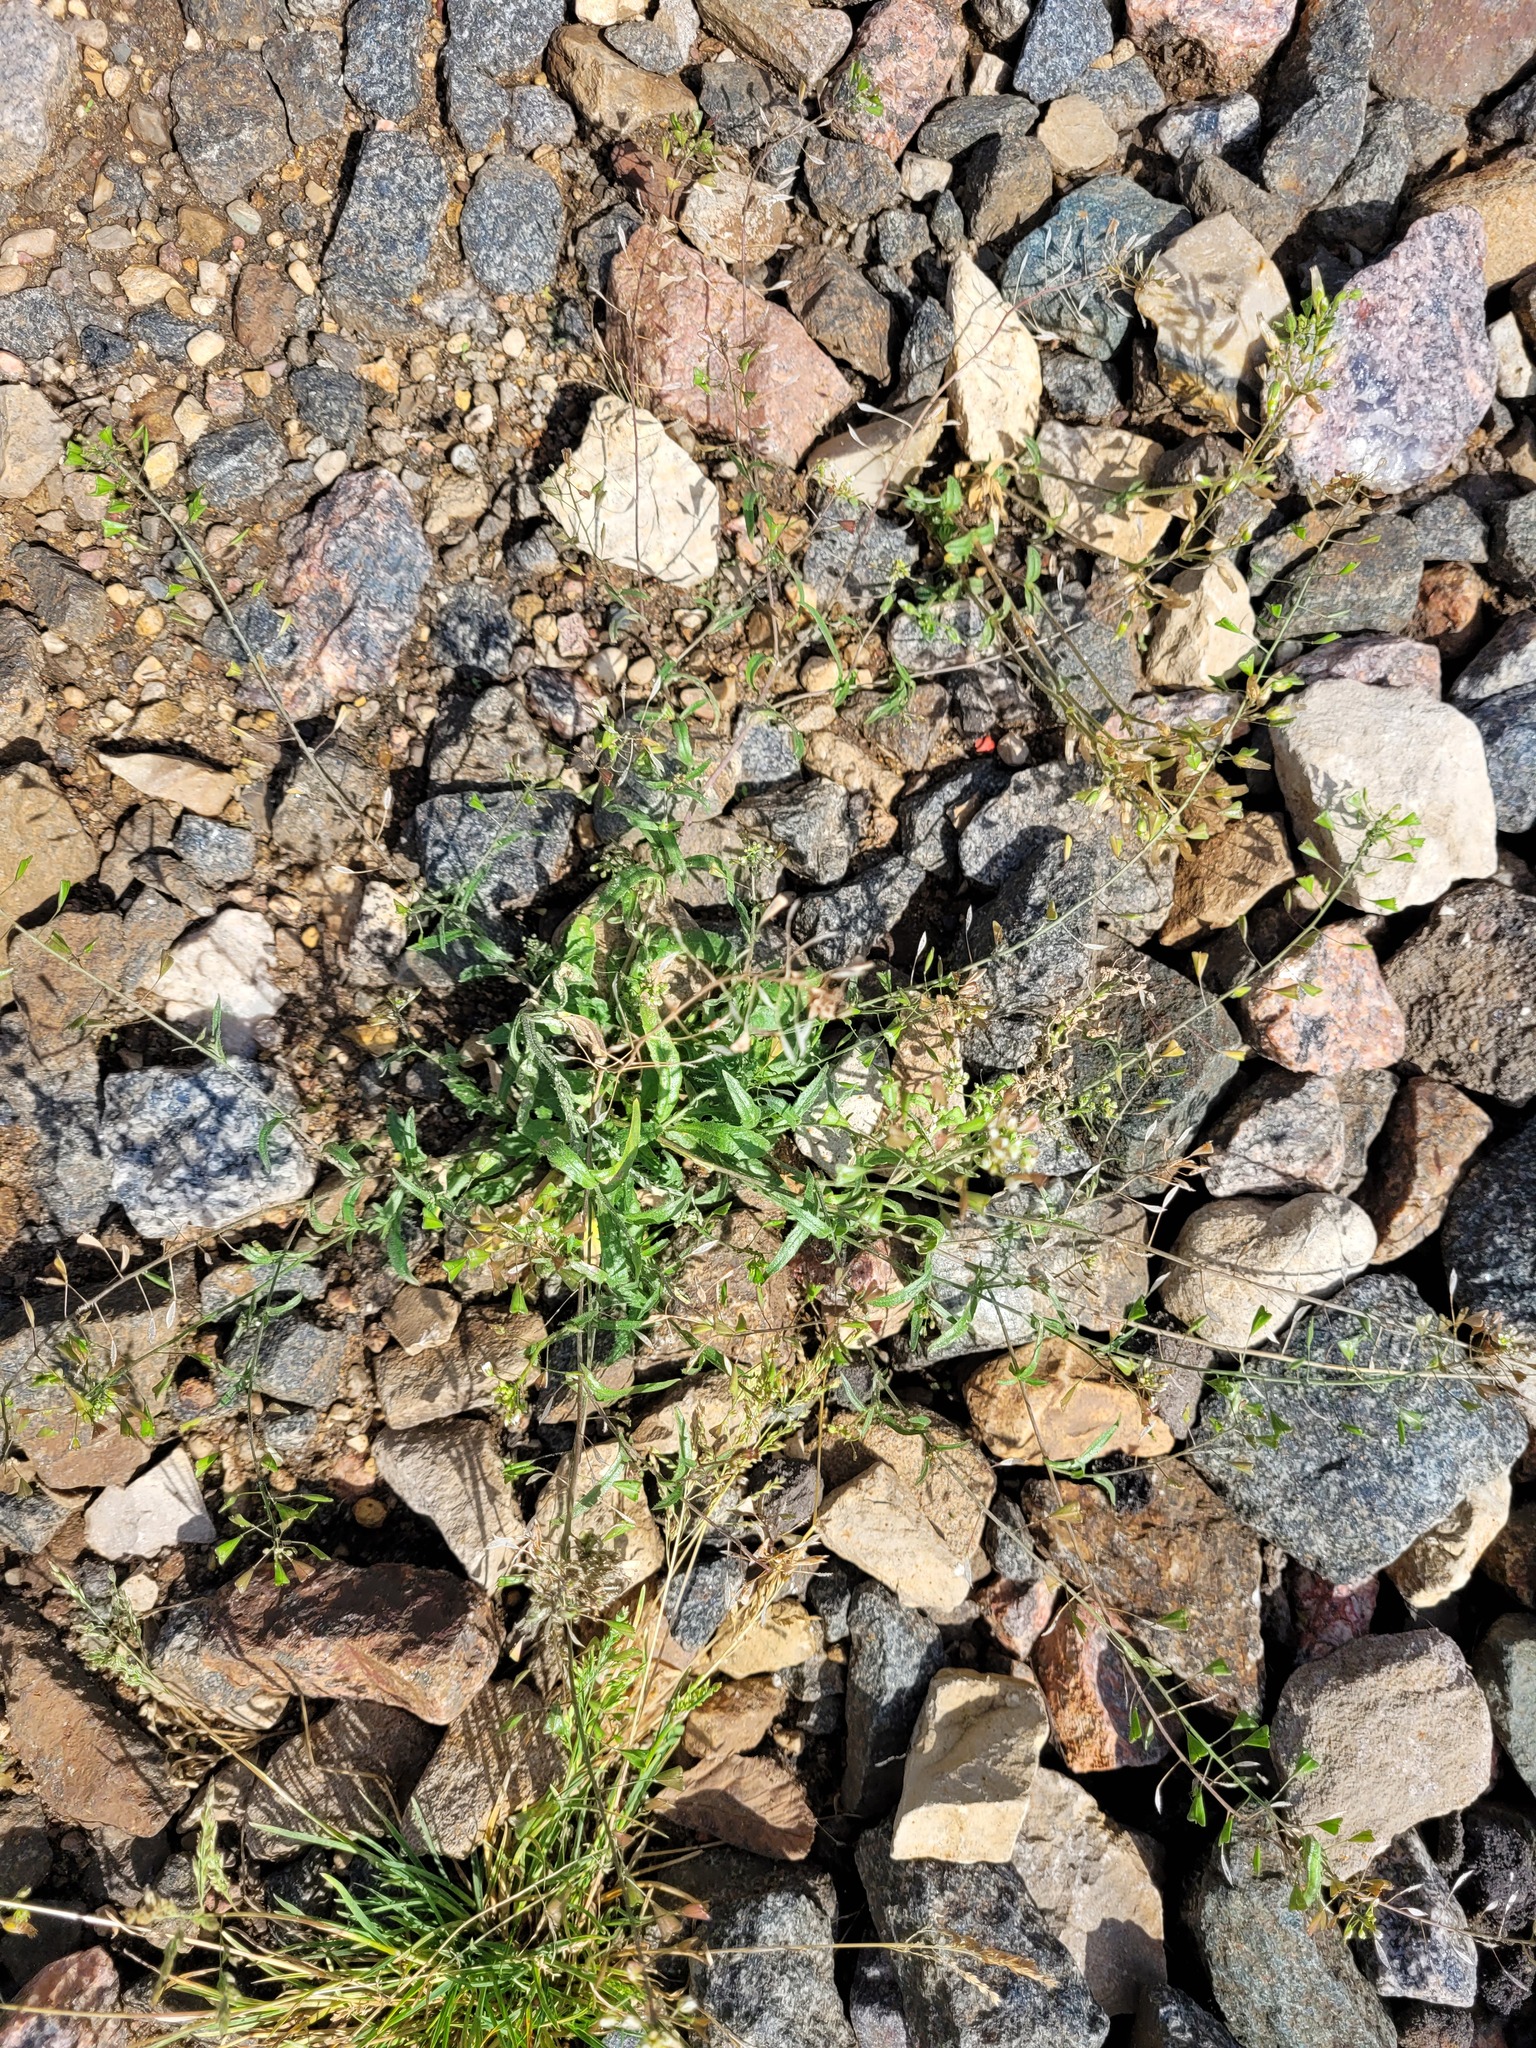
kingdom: Plantae
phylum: Tracheophyta
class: Magnoliopsida
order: Brassicales
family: Brassicaceae
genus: Capsella
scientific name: Capsella bursa-pastoris
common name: Shepherd's purse
